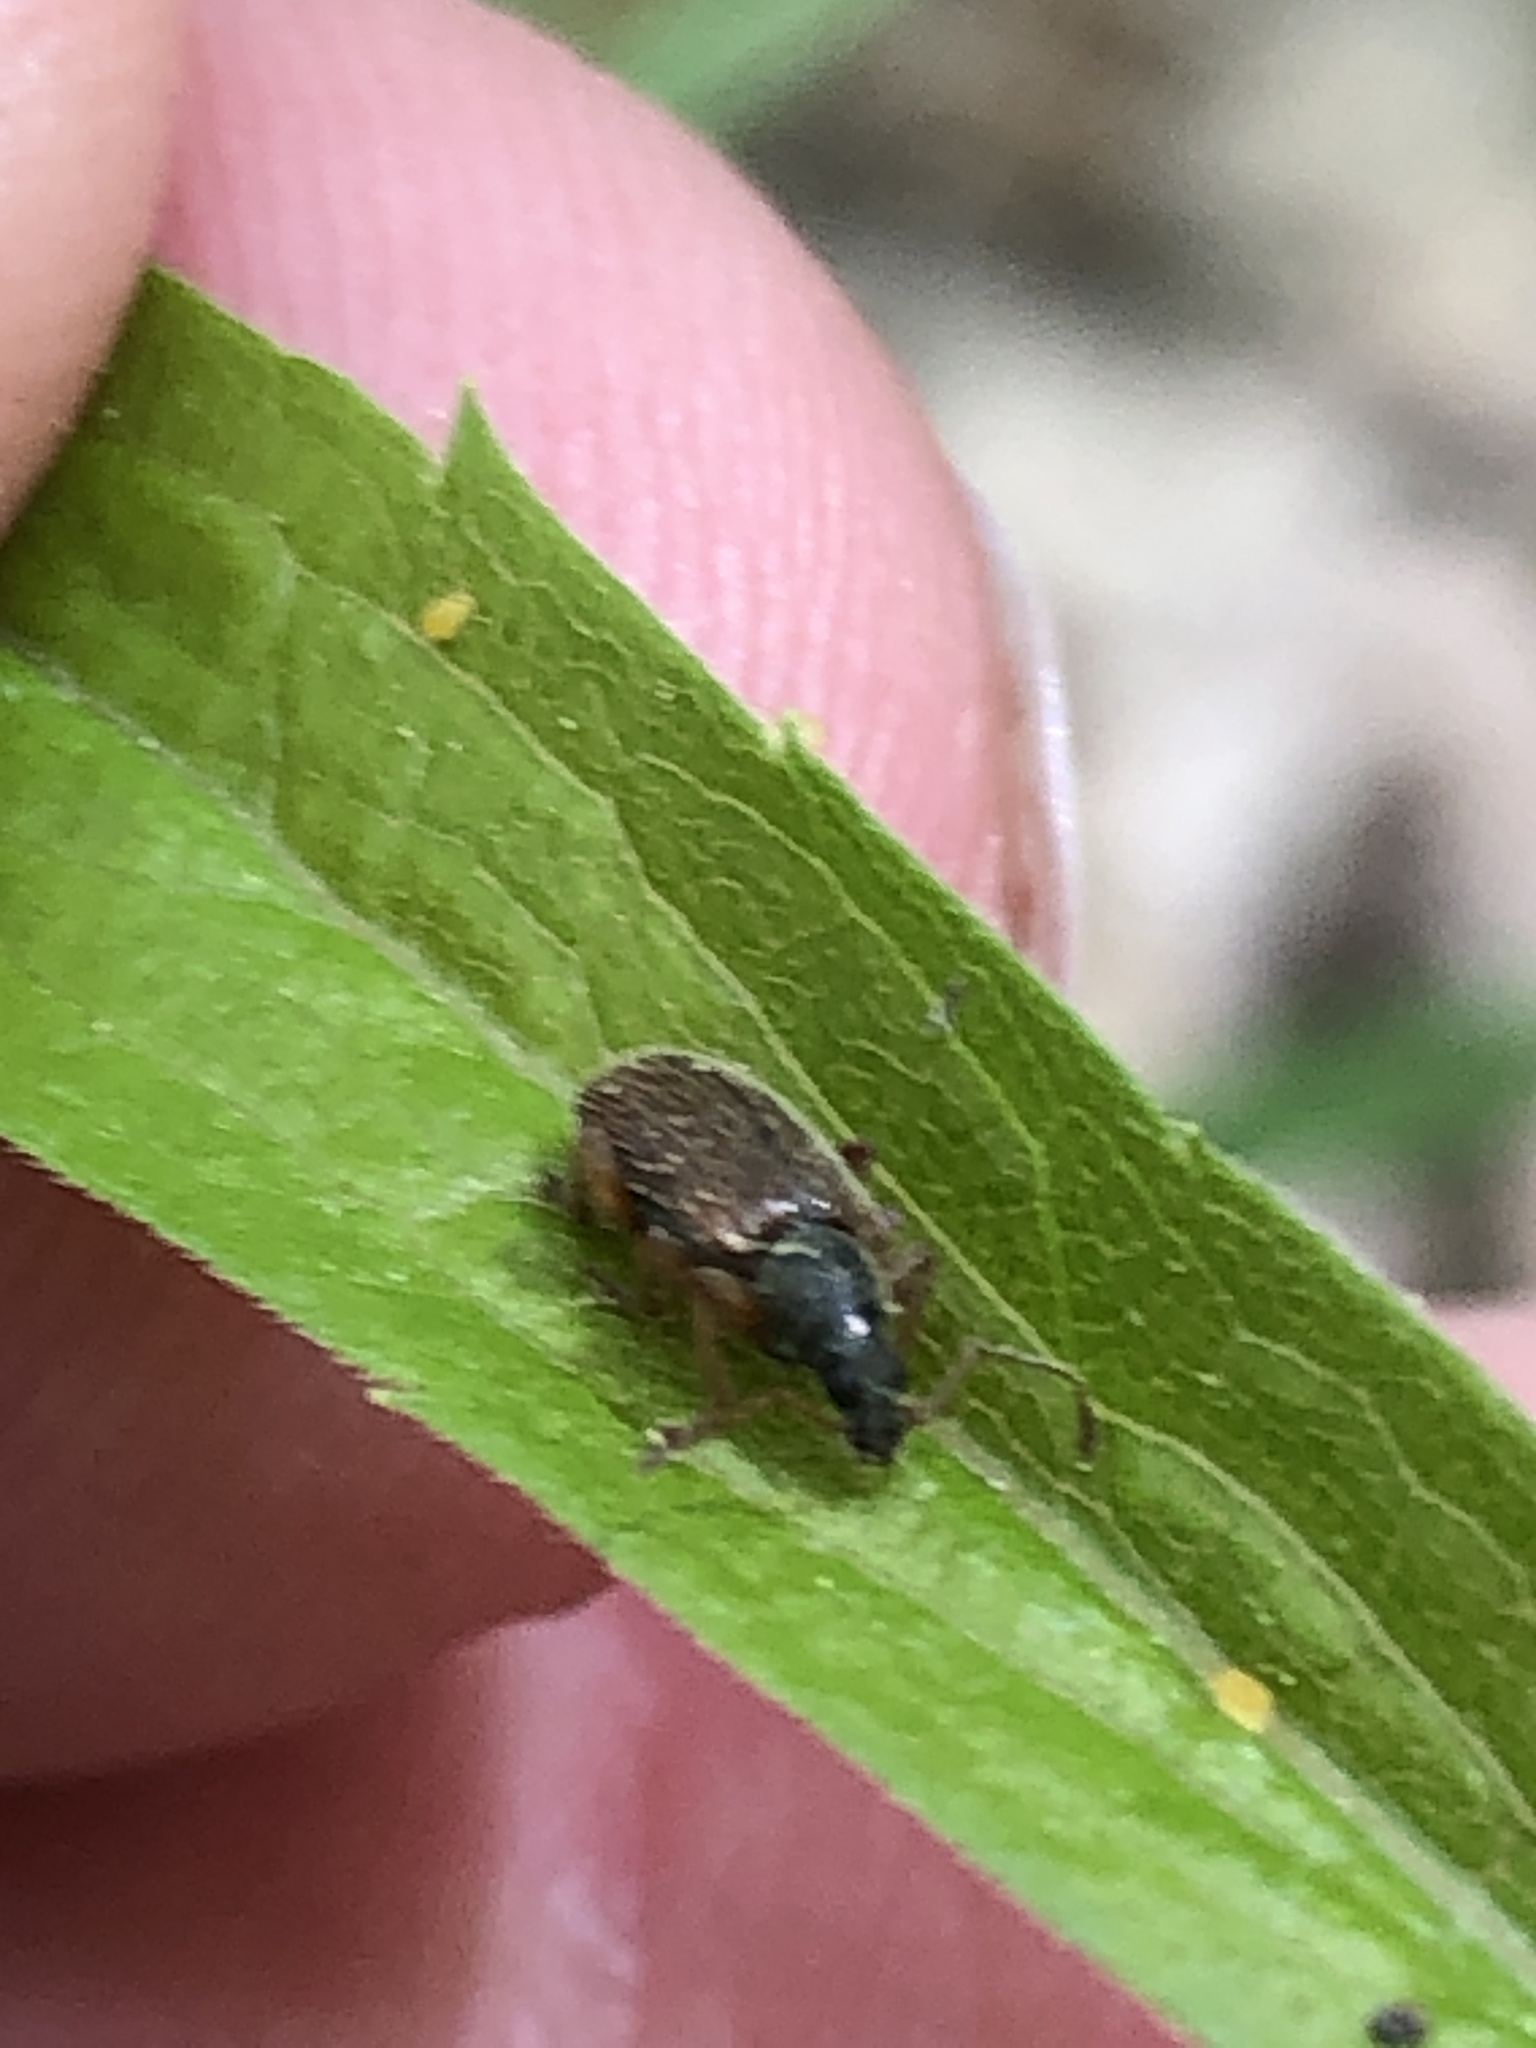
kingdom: Animalia
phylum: Arthropoda
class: Insecta
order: Coleoptera
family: Curculionidae
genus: Phyllobius
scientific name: Phyllobius oblongus
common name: Brown leaf weevil
